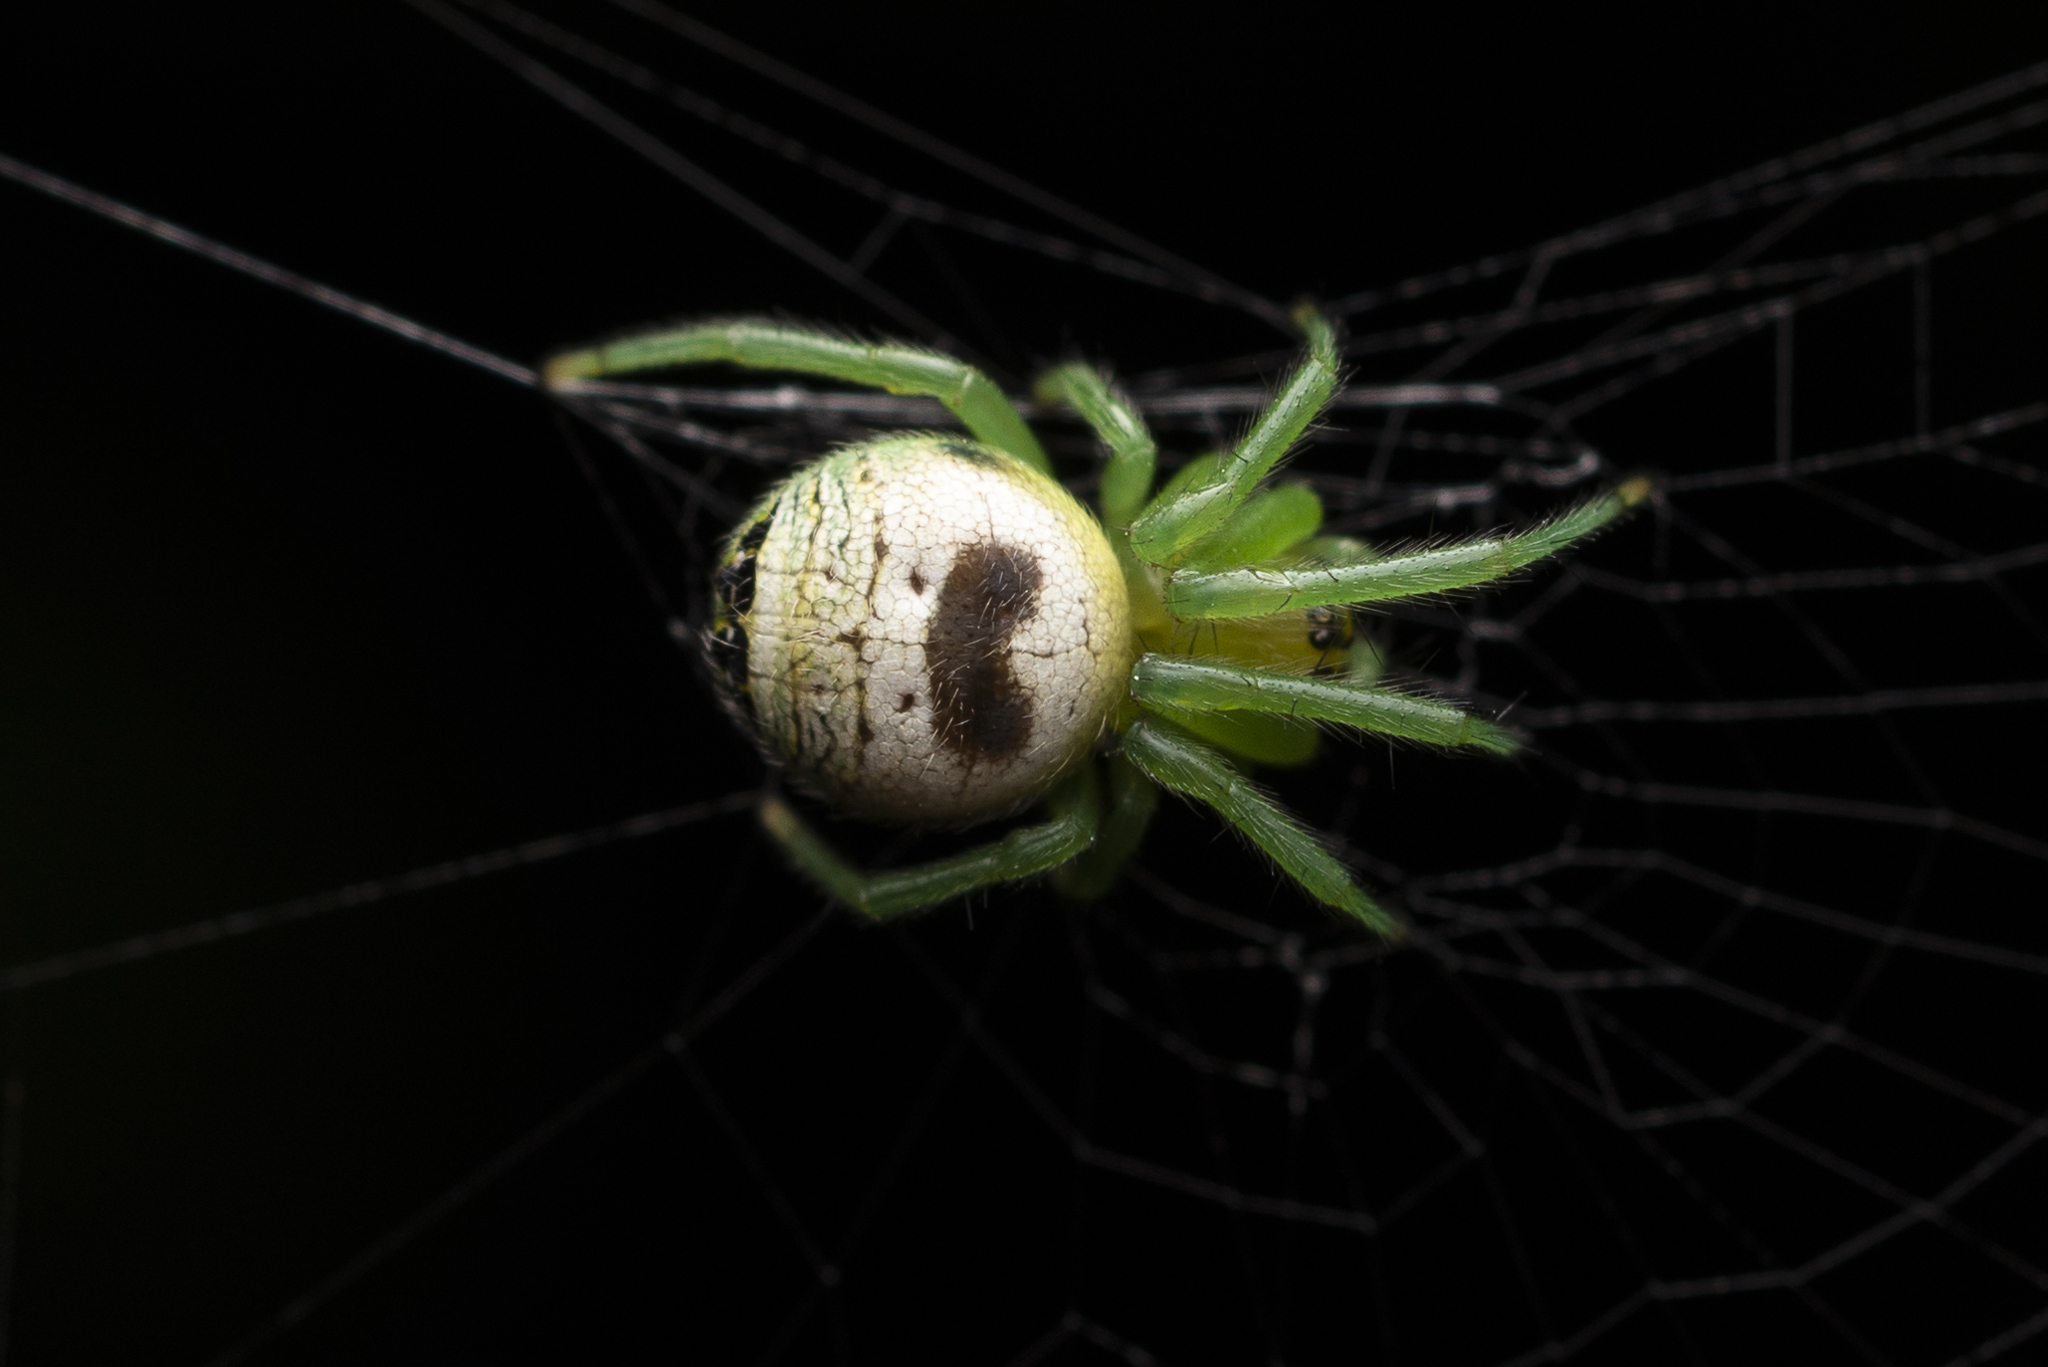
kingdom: Animalia
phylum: Arthropoda
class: Arachnida
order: Araneae
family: Araneidae
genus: Bijoaraneus
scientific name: Bijoaraneus mitificus
